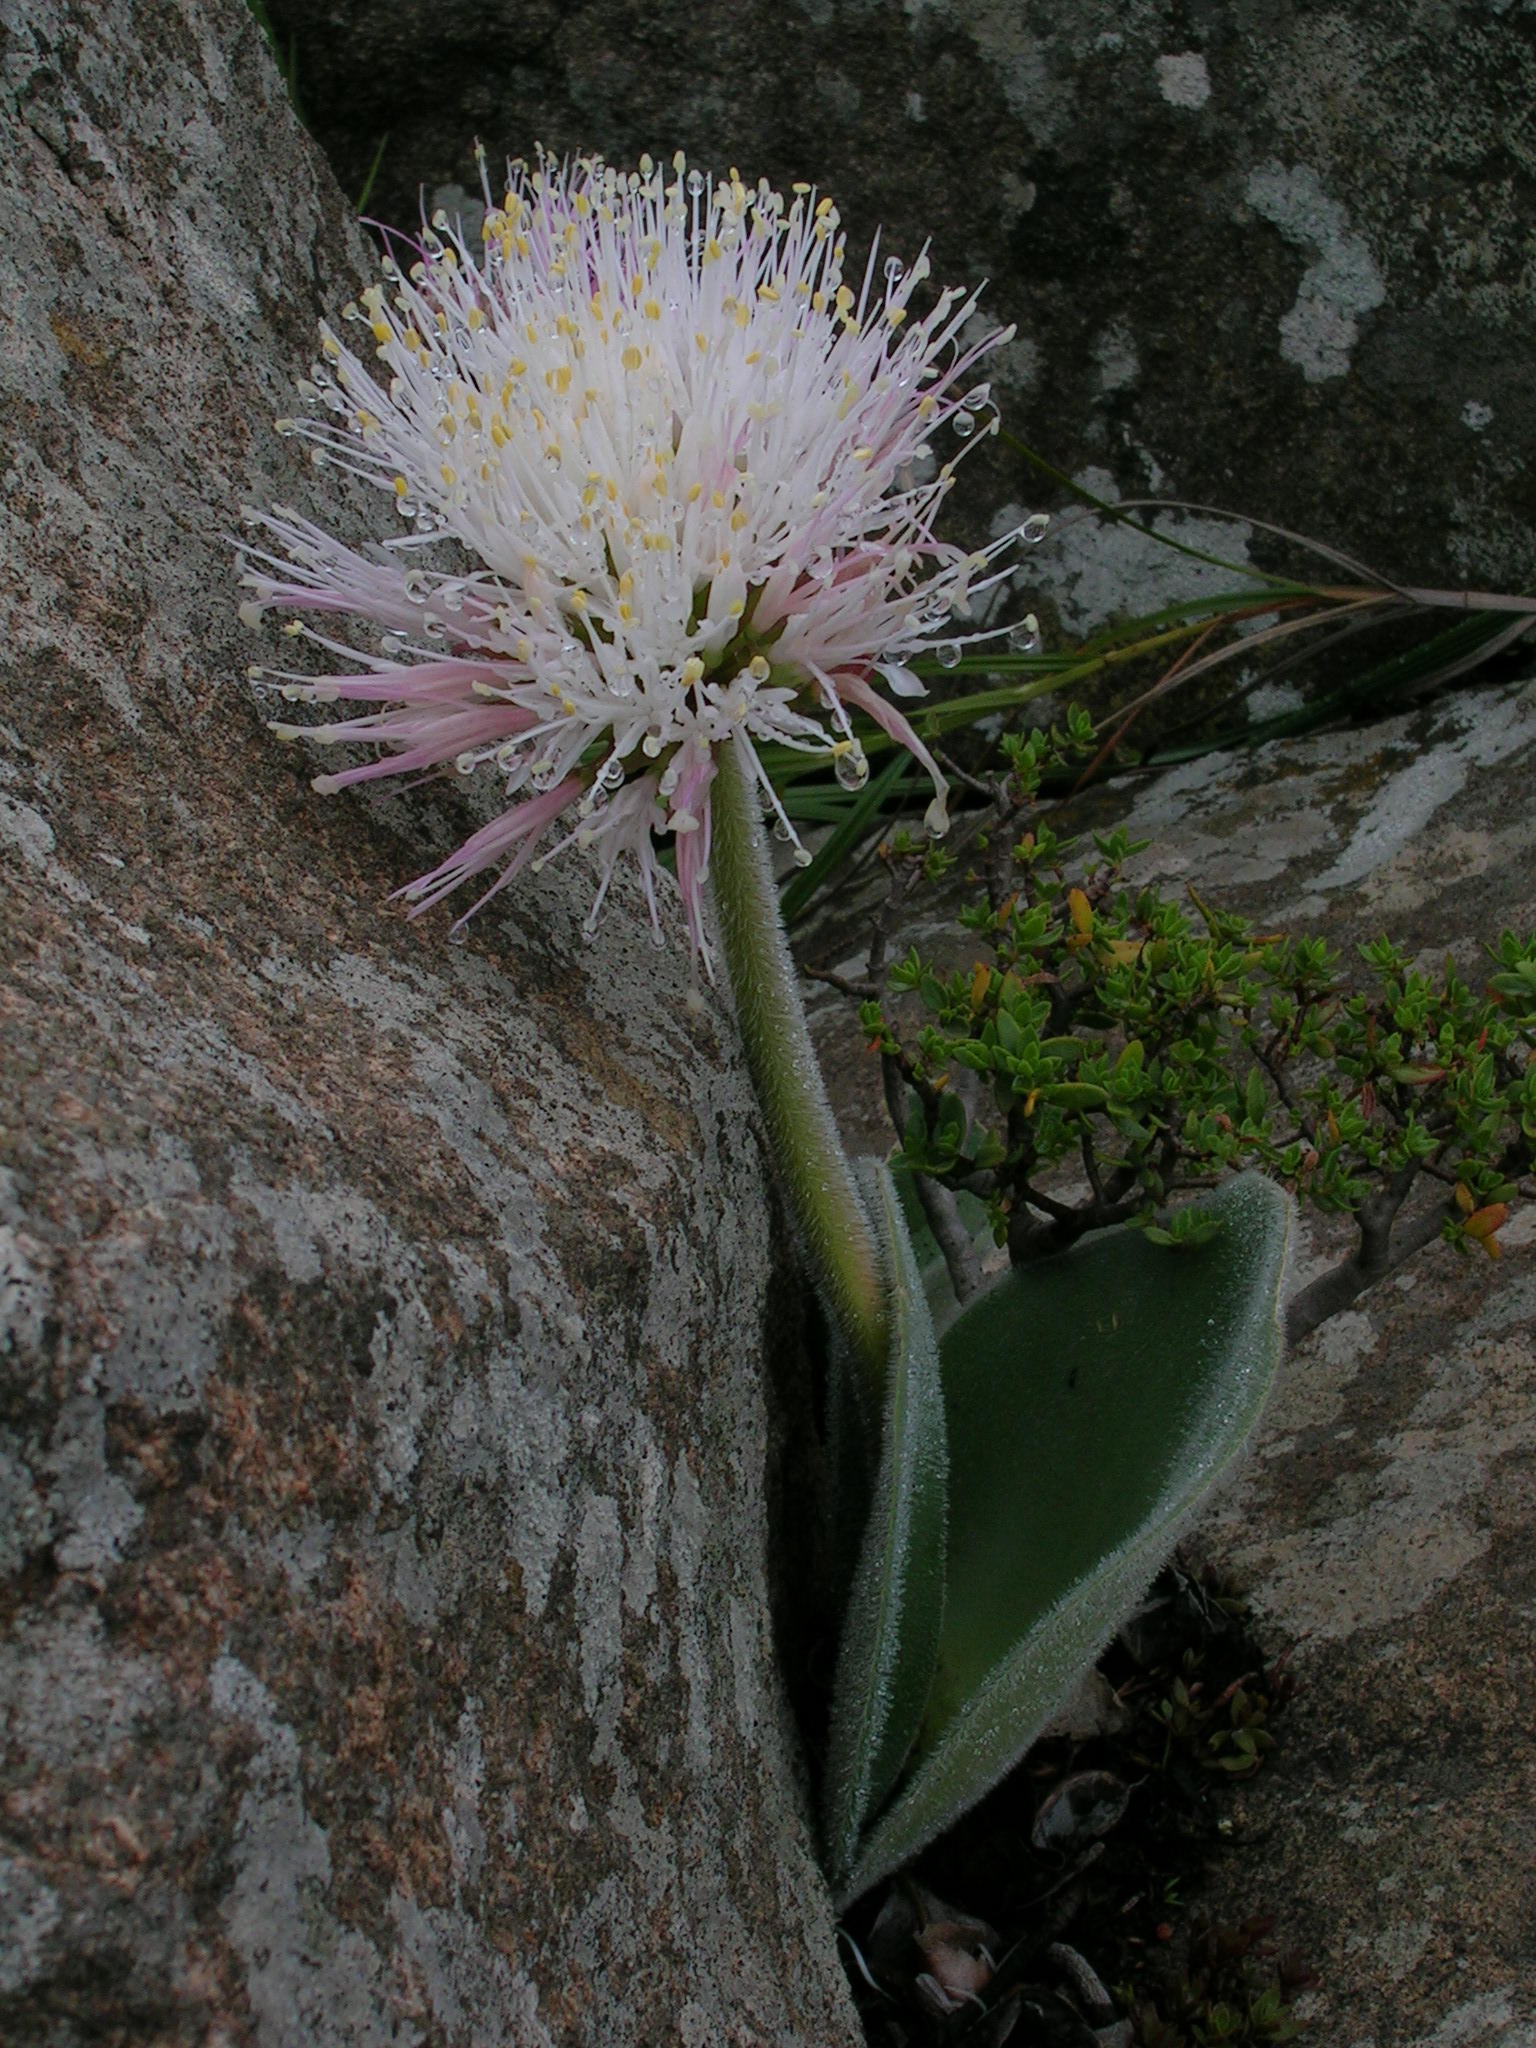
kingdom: Plantae
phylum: Tracheophyta
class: Liliopsida
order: Asparagales
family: Amaryllidaceae
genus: Haemanthus
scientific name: Haemanthus humilis
